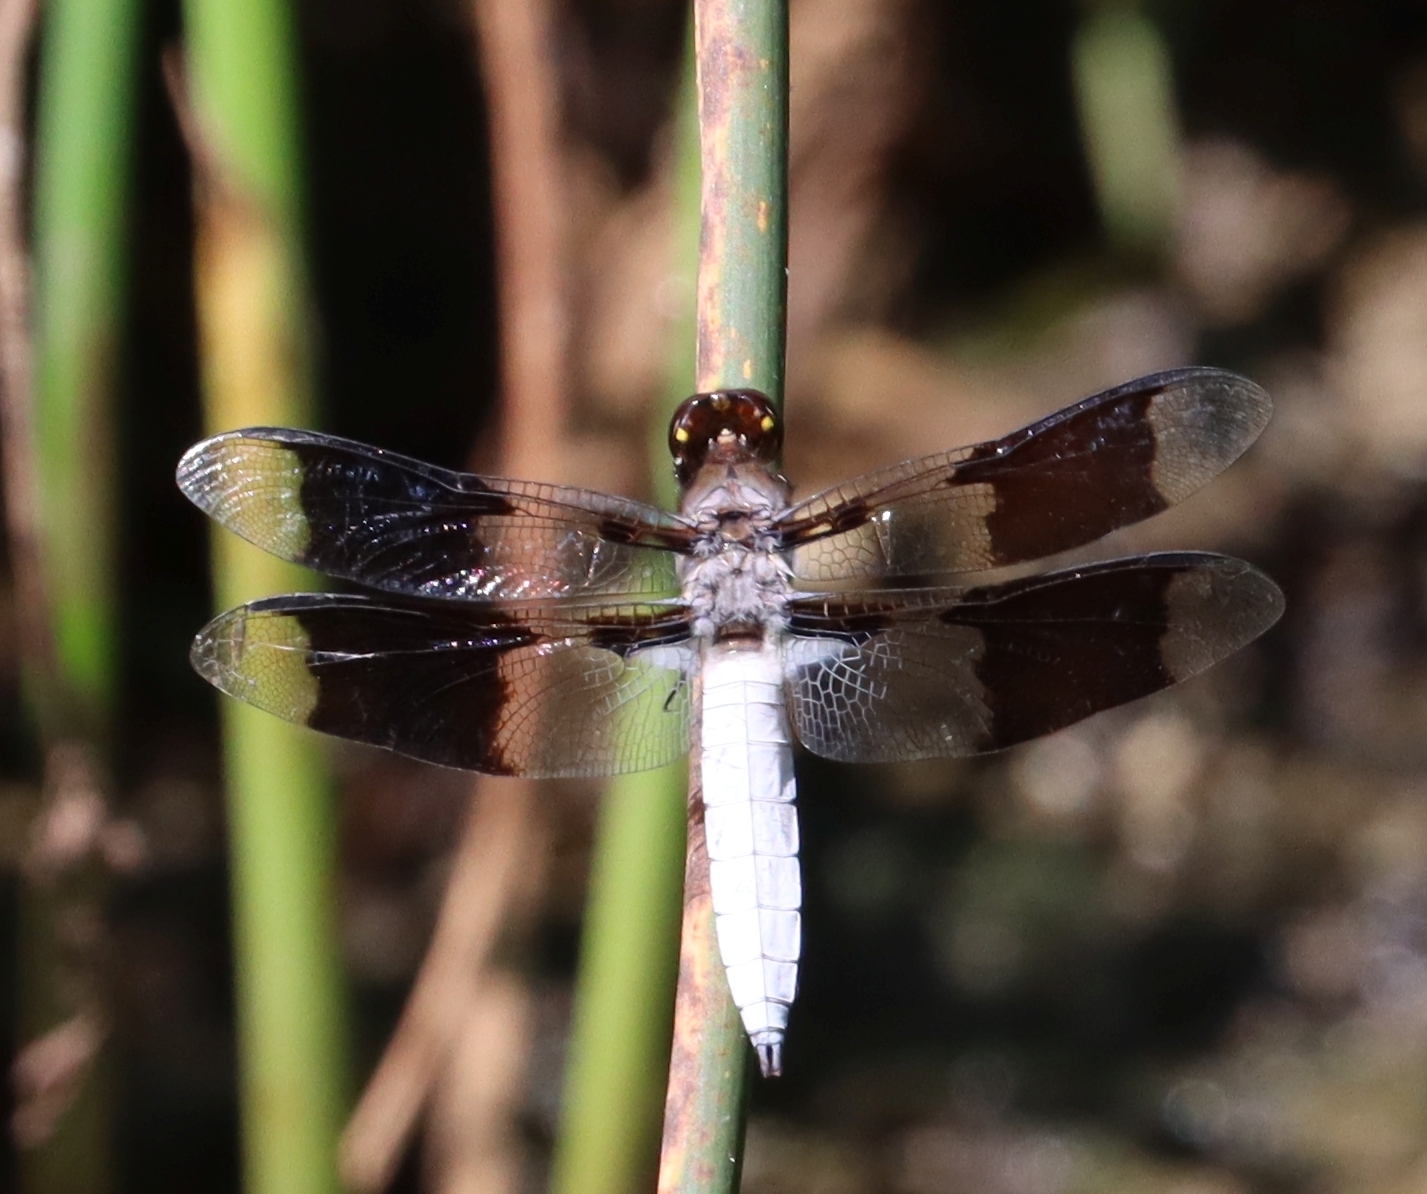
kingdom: Animalia
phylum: Arthropoda
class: Insecta
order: Odonata
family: Libellulidae
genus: Plathemis
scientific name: Plathemis lydia
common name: Common whitetail
